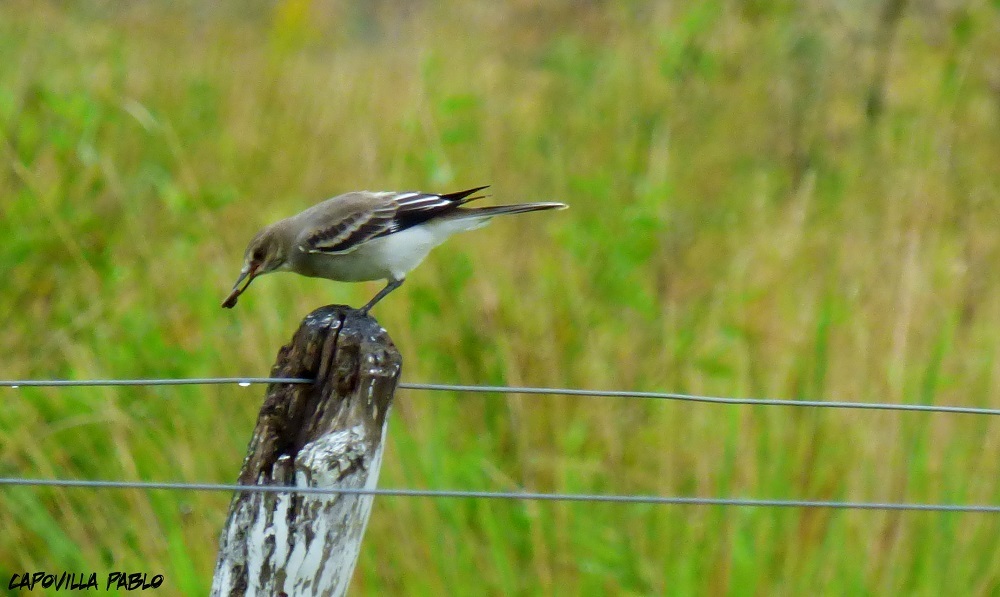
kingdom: Animalia
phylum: Chordata
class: Aves
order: Passeriformes
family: Tyrannidae
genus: Xolmis
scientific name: Xolmis cinereus
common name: Grey monjita
